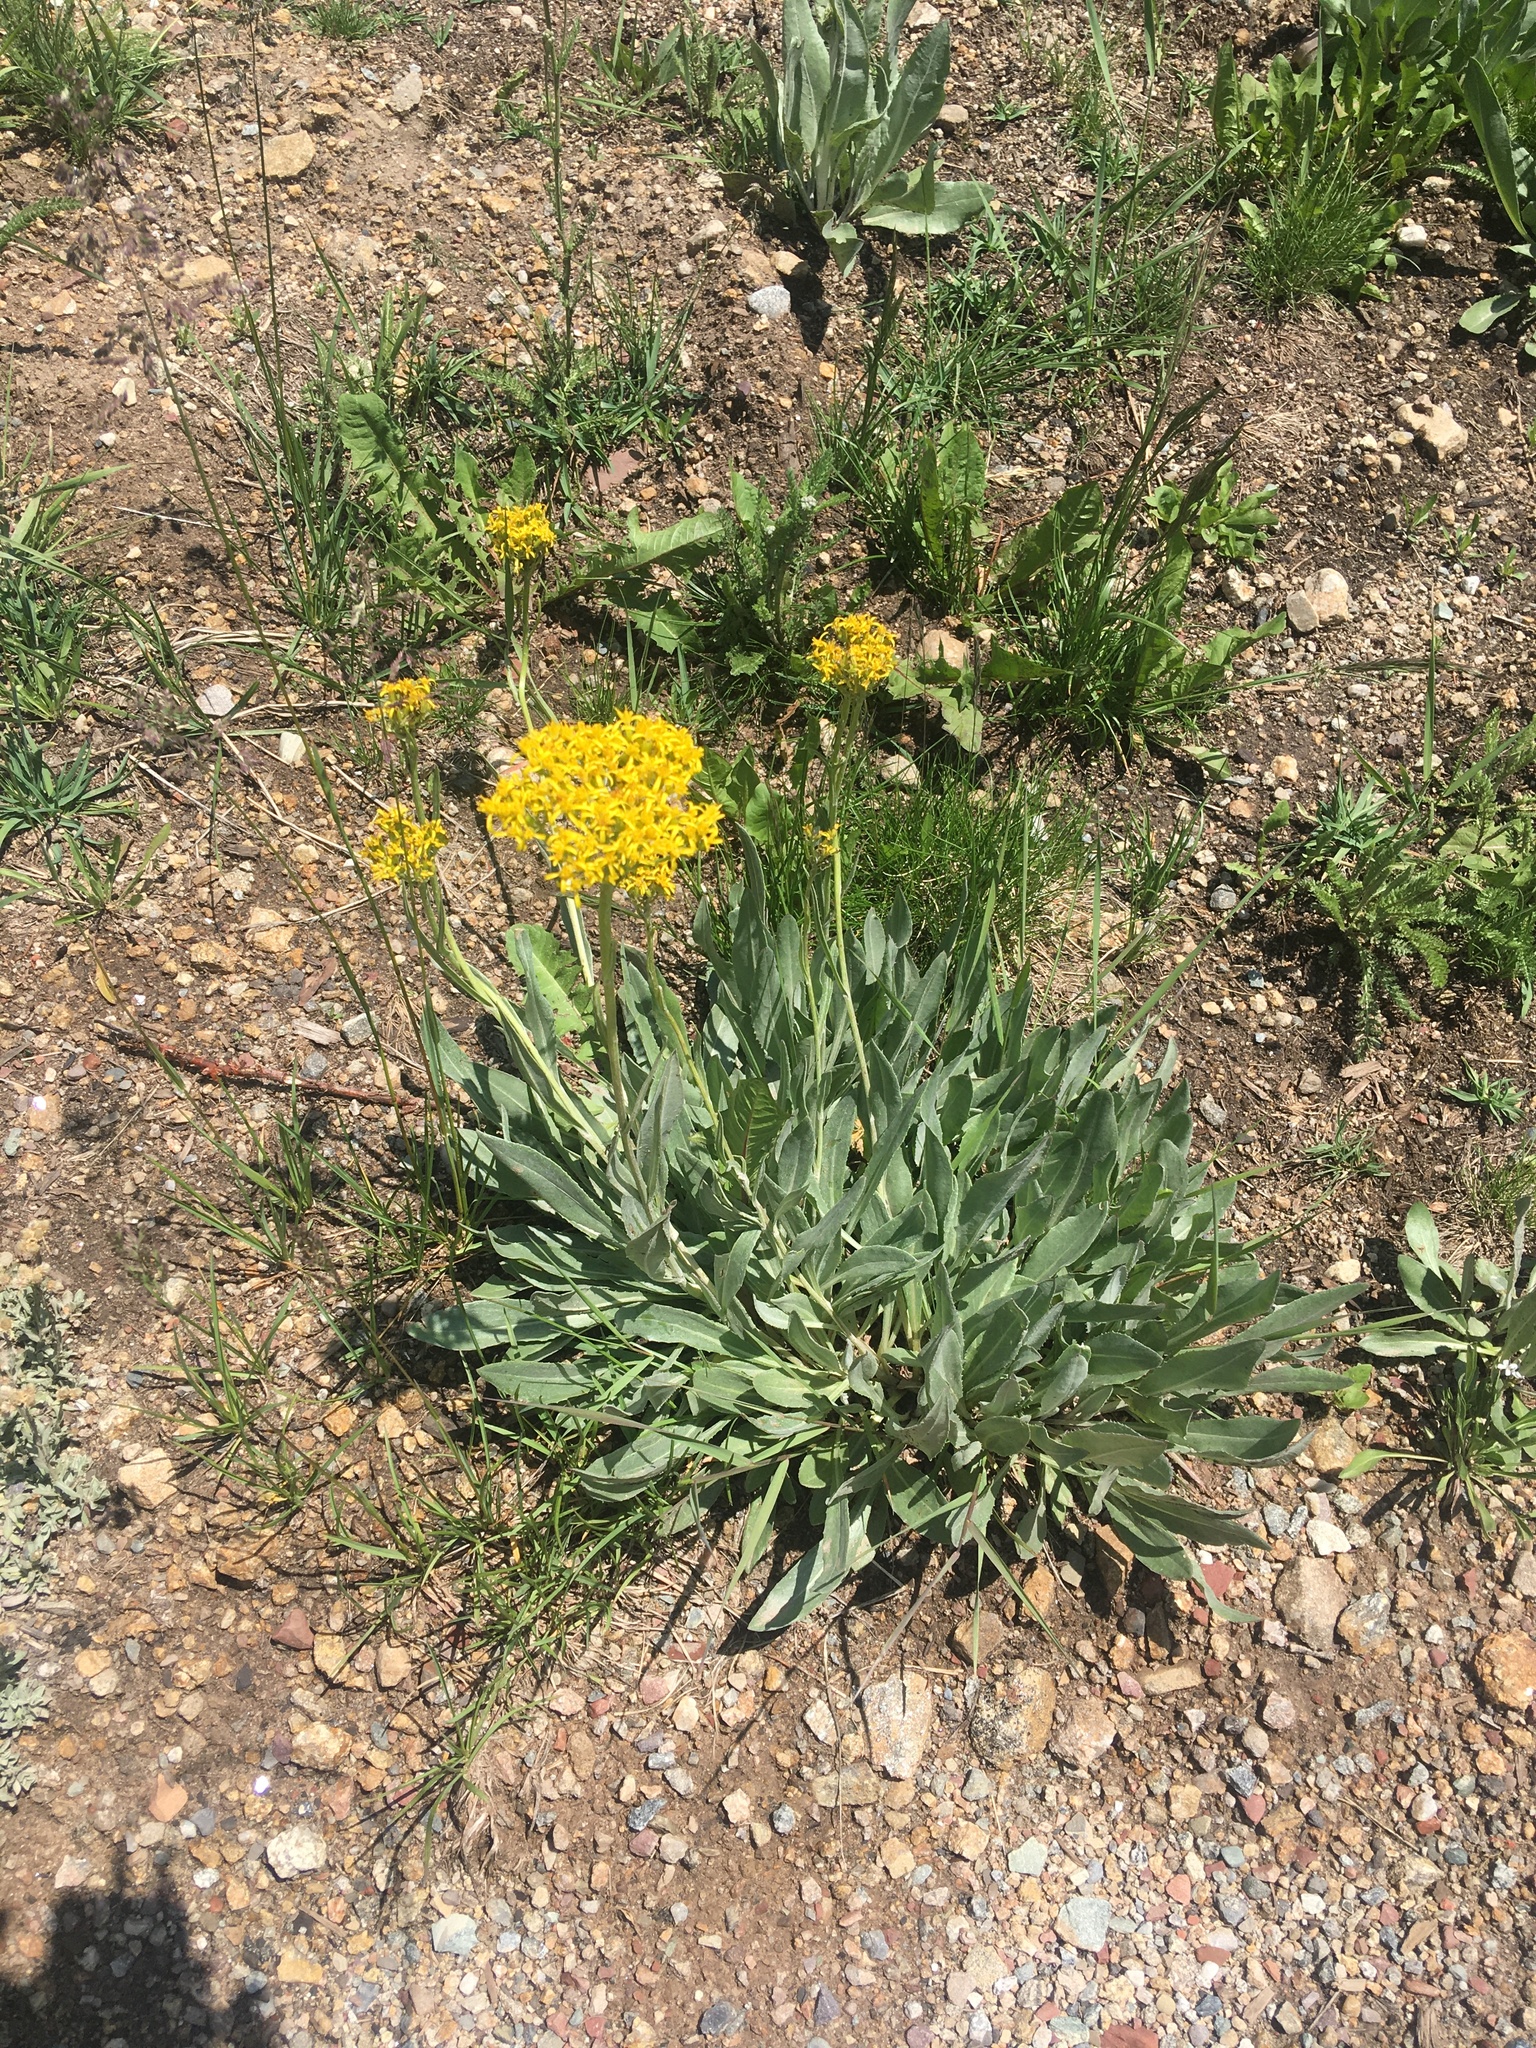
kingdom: Plantae
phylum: Tracheophyta
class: Magnoliopsida
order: Asterales
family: Asteraceae
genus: Senecio
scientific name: Senecio atratus
